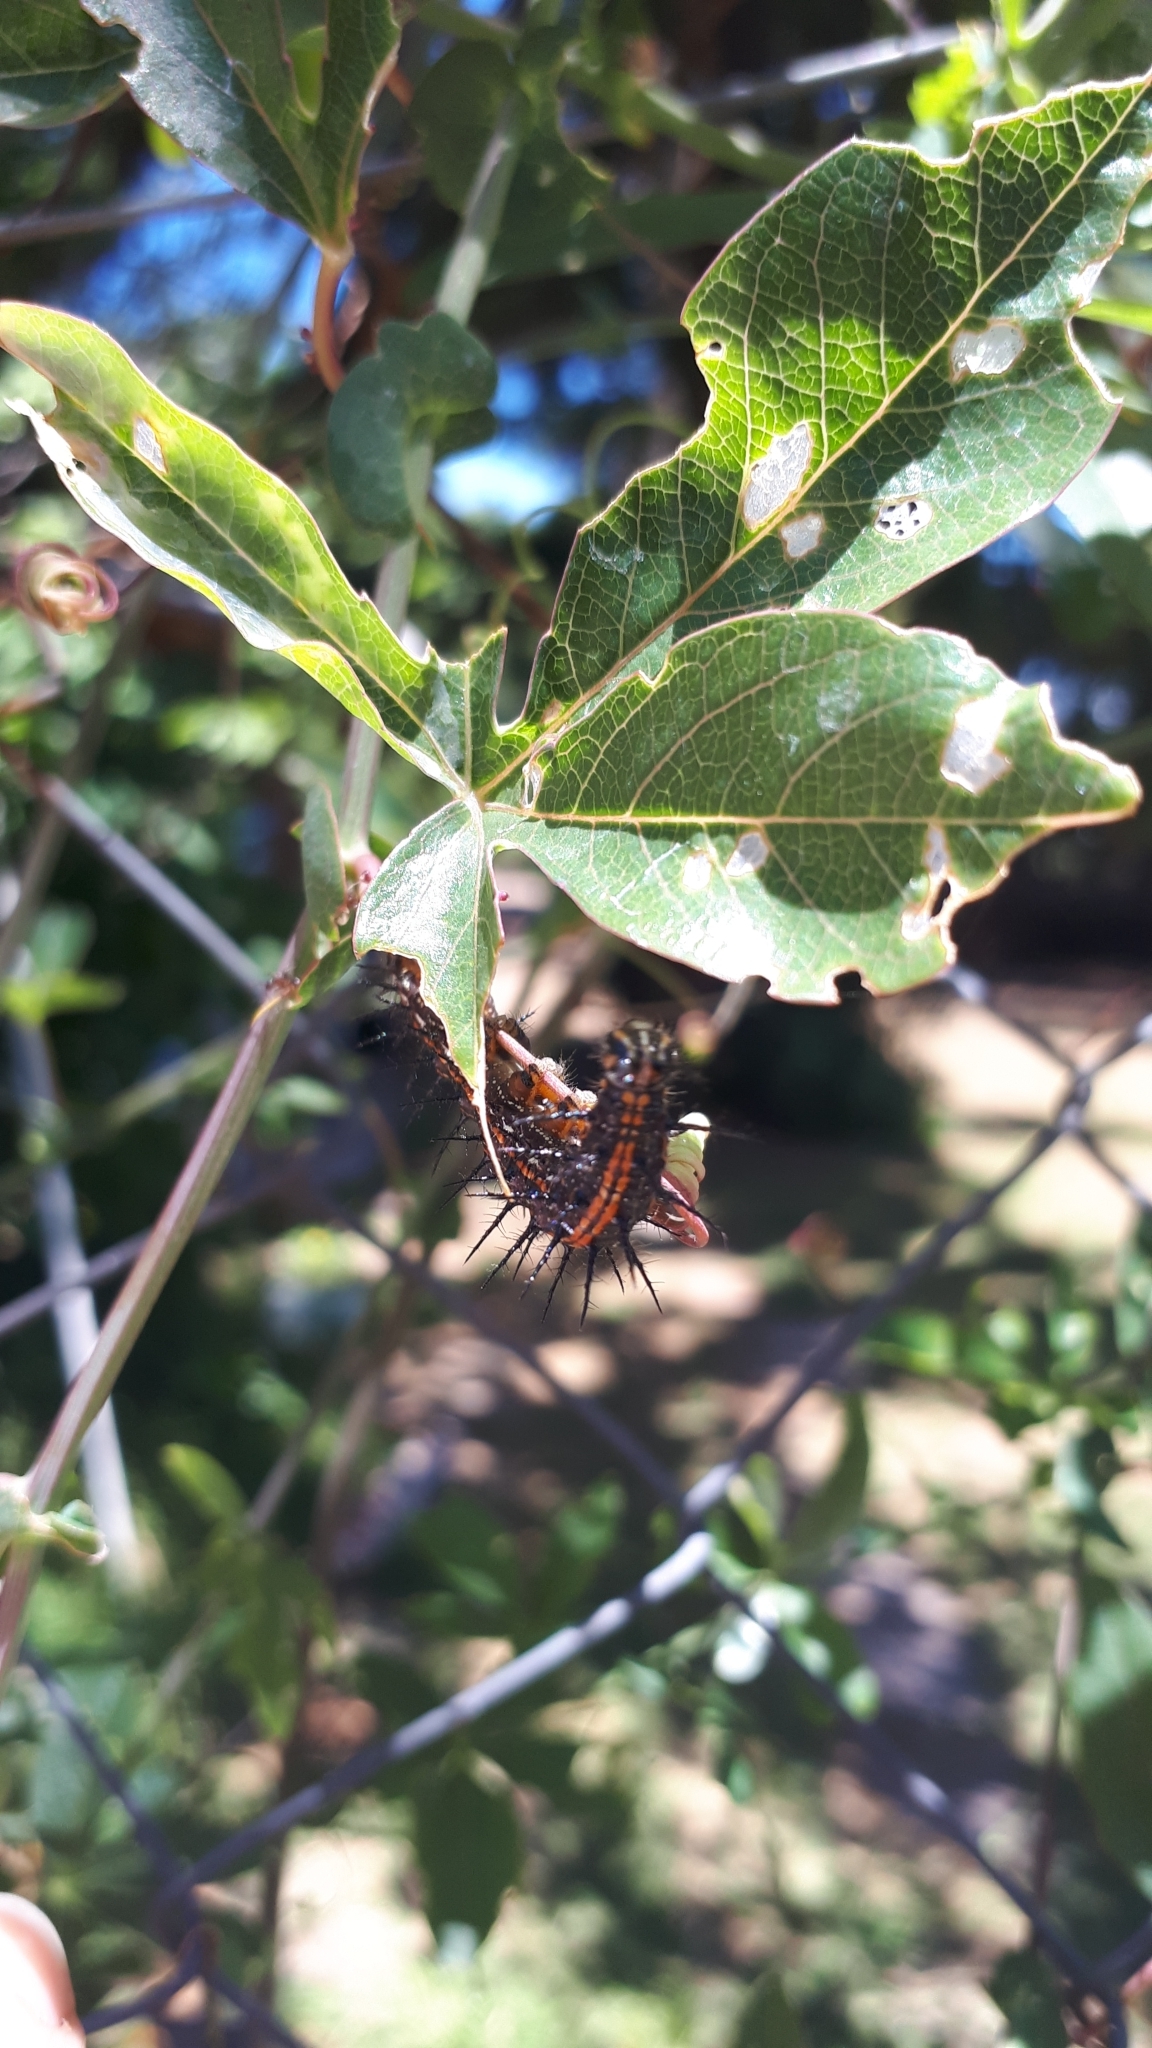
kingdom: Animalia
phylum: Arthropoda
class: Insecta
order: Lepidoptera
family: Nymphalidae
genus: Dione
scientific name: Dione vanillae
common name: Gulf fritillary
